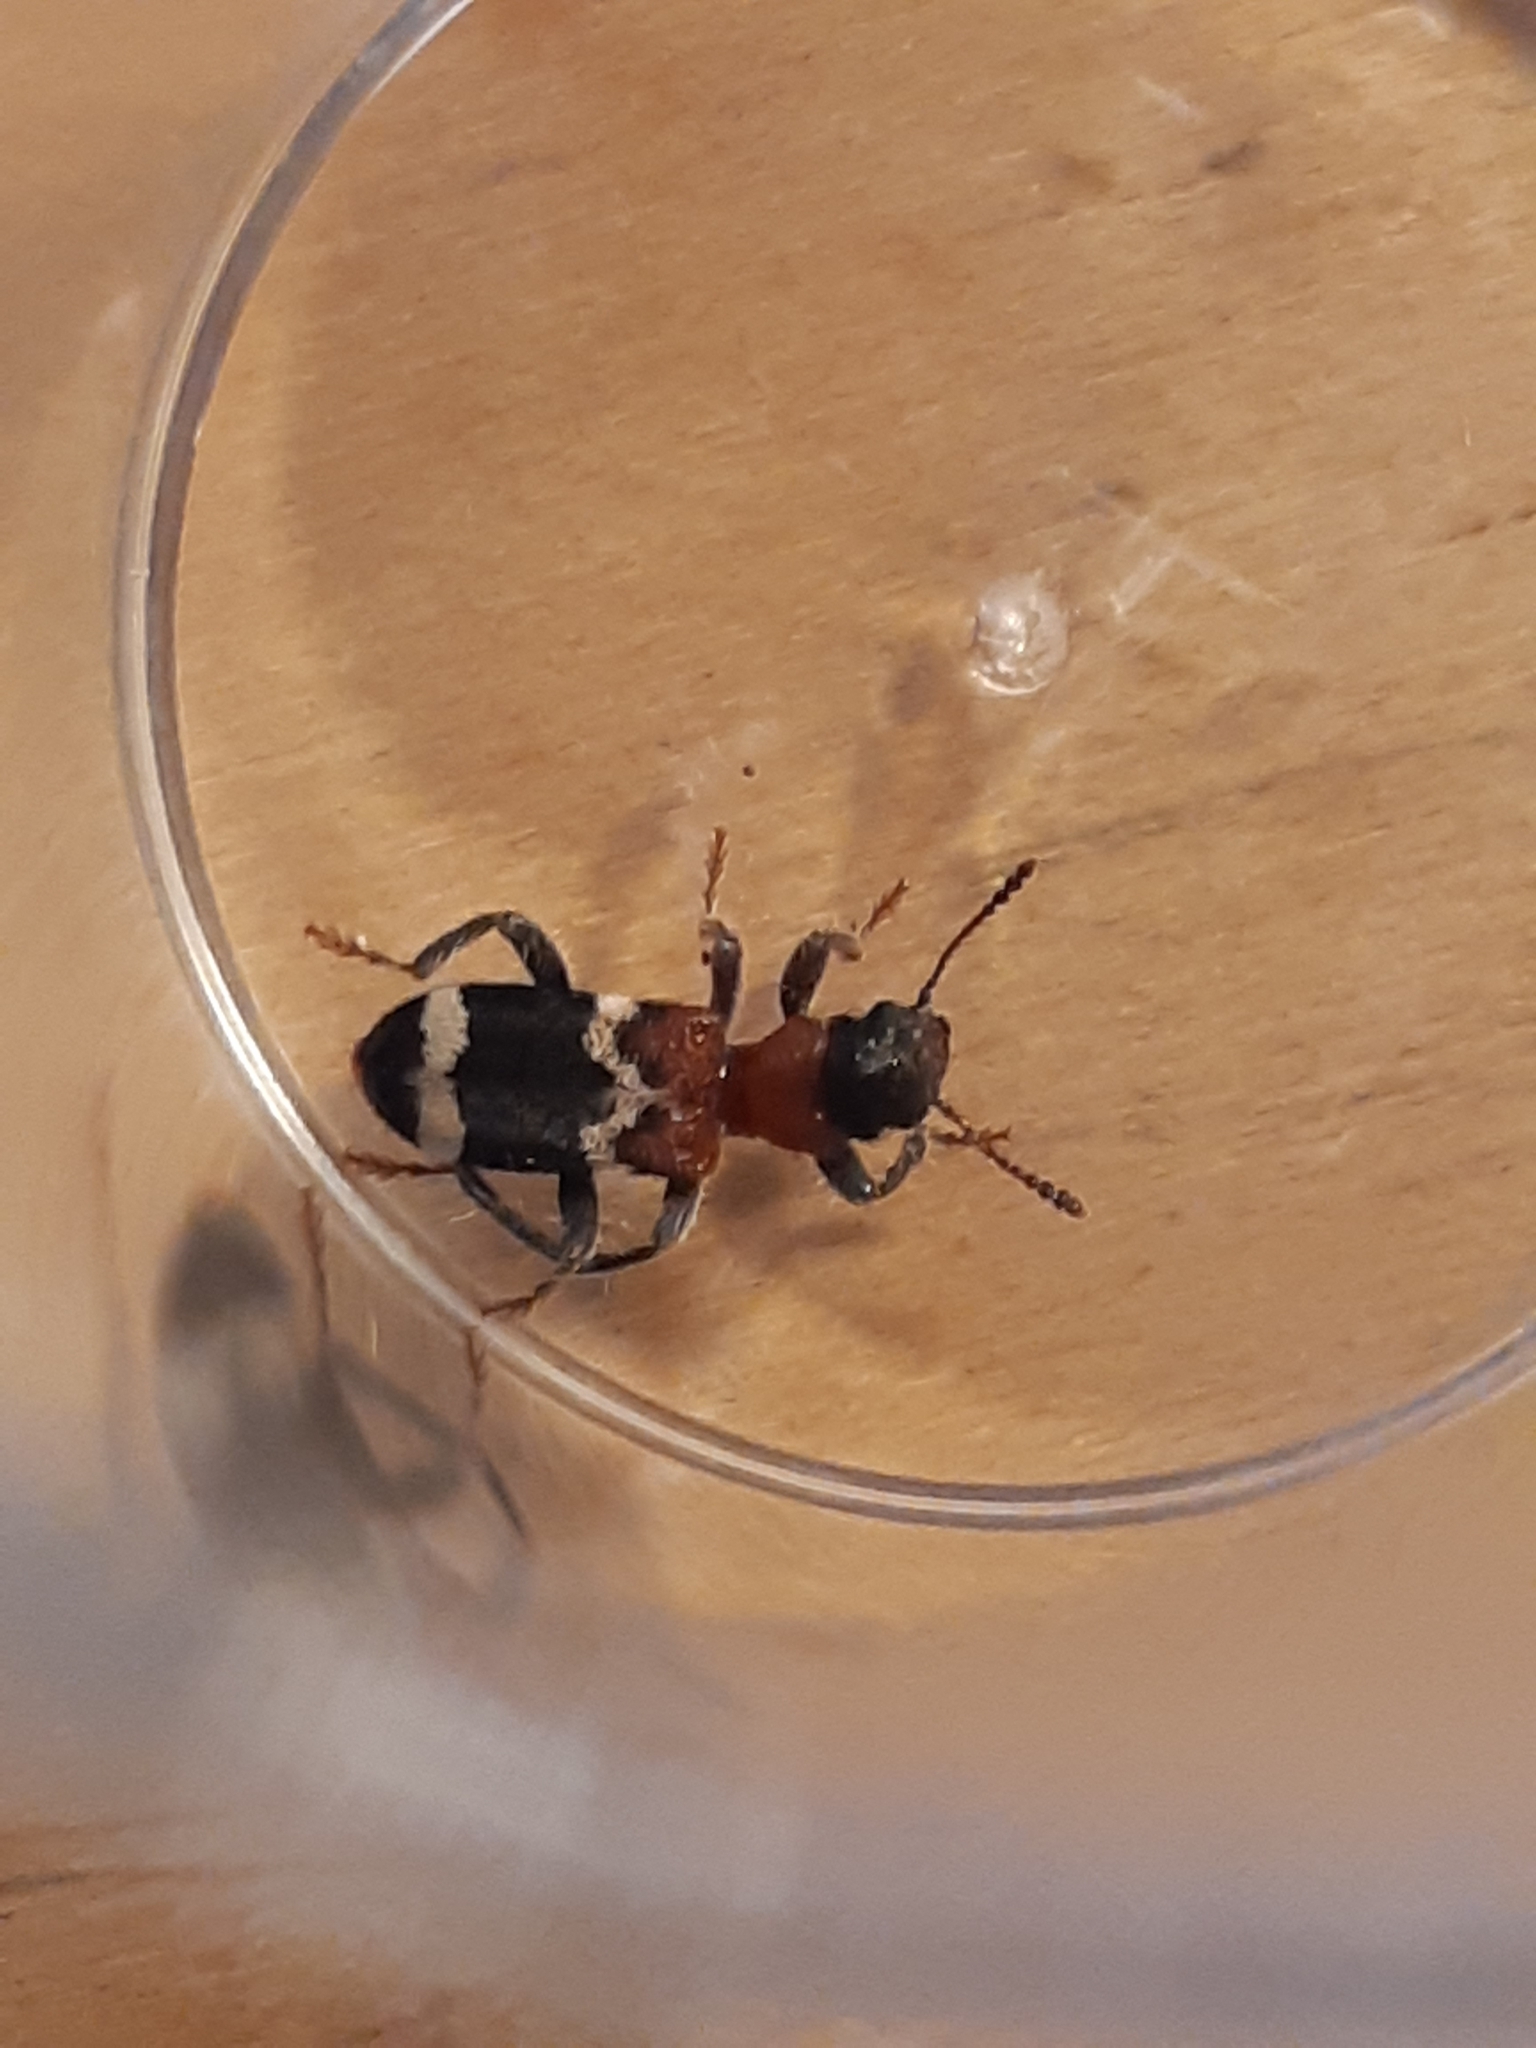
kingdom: Animalia
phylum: Arthropoda
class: Insecta
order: Coleoptera
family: Cleridae
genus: Thanasimus
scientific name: Thanasimus formicarius
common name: Ant beetle
